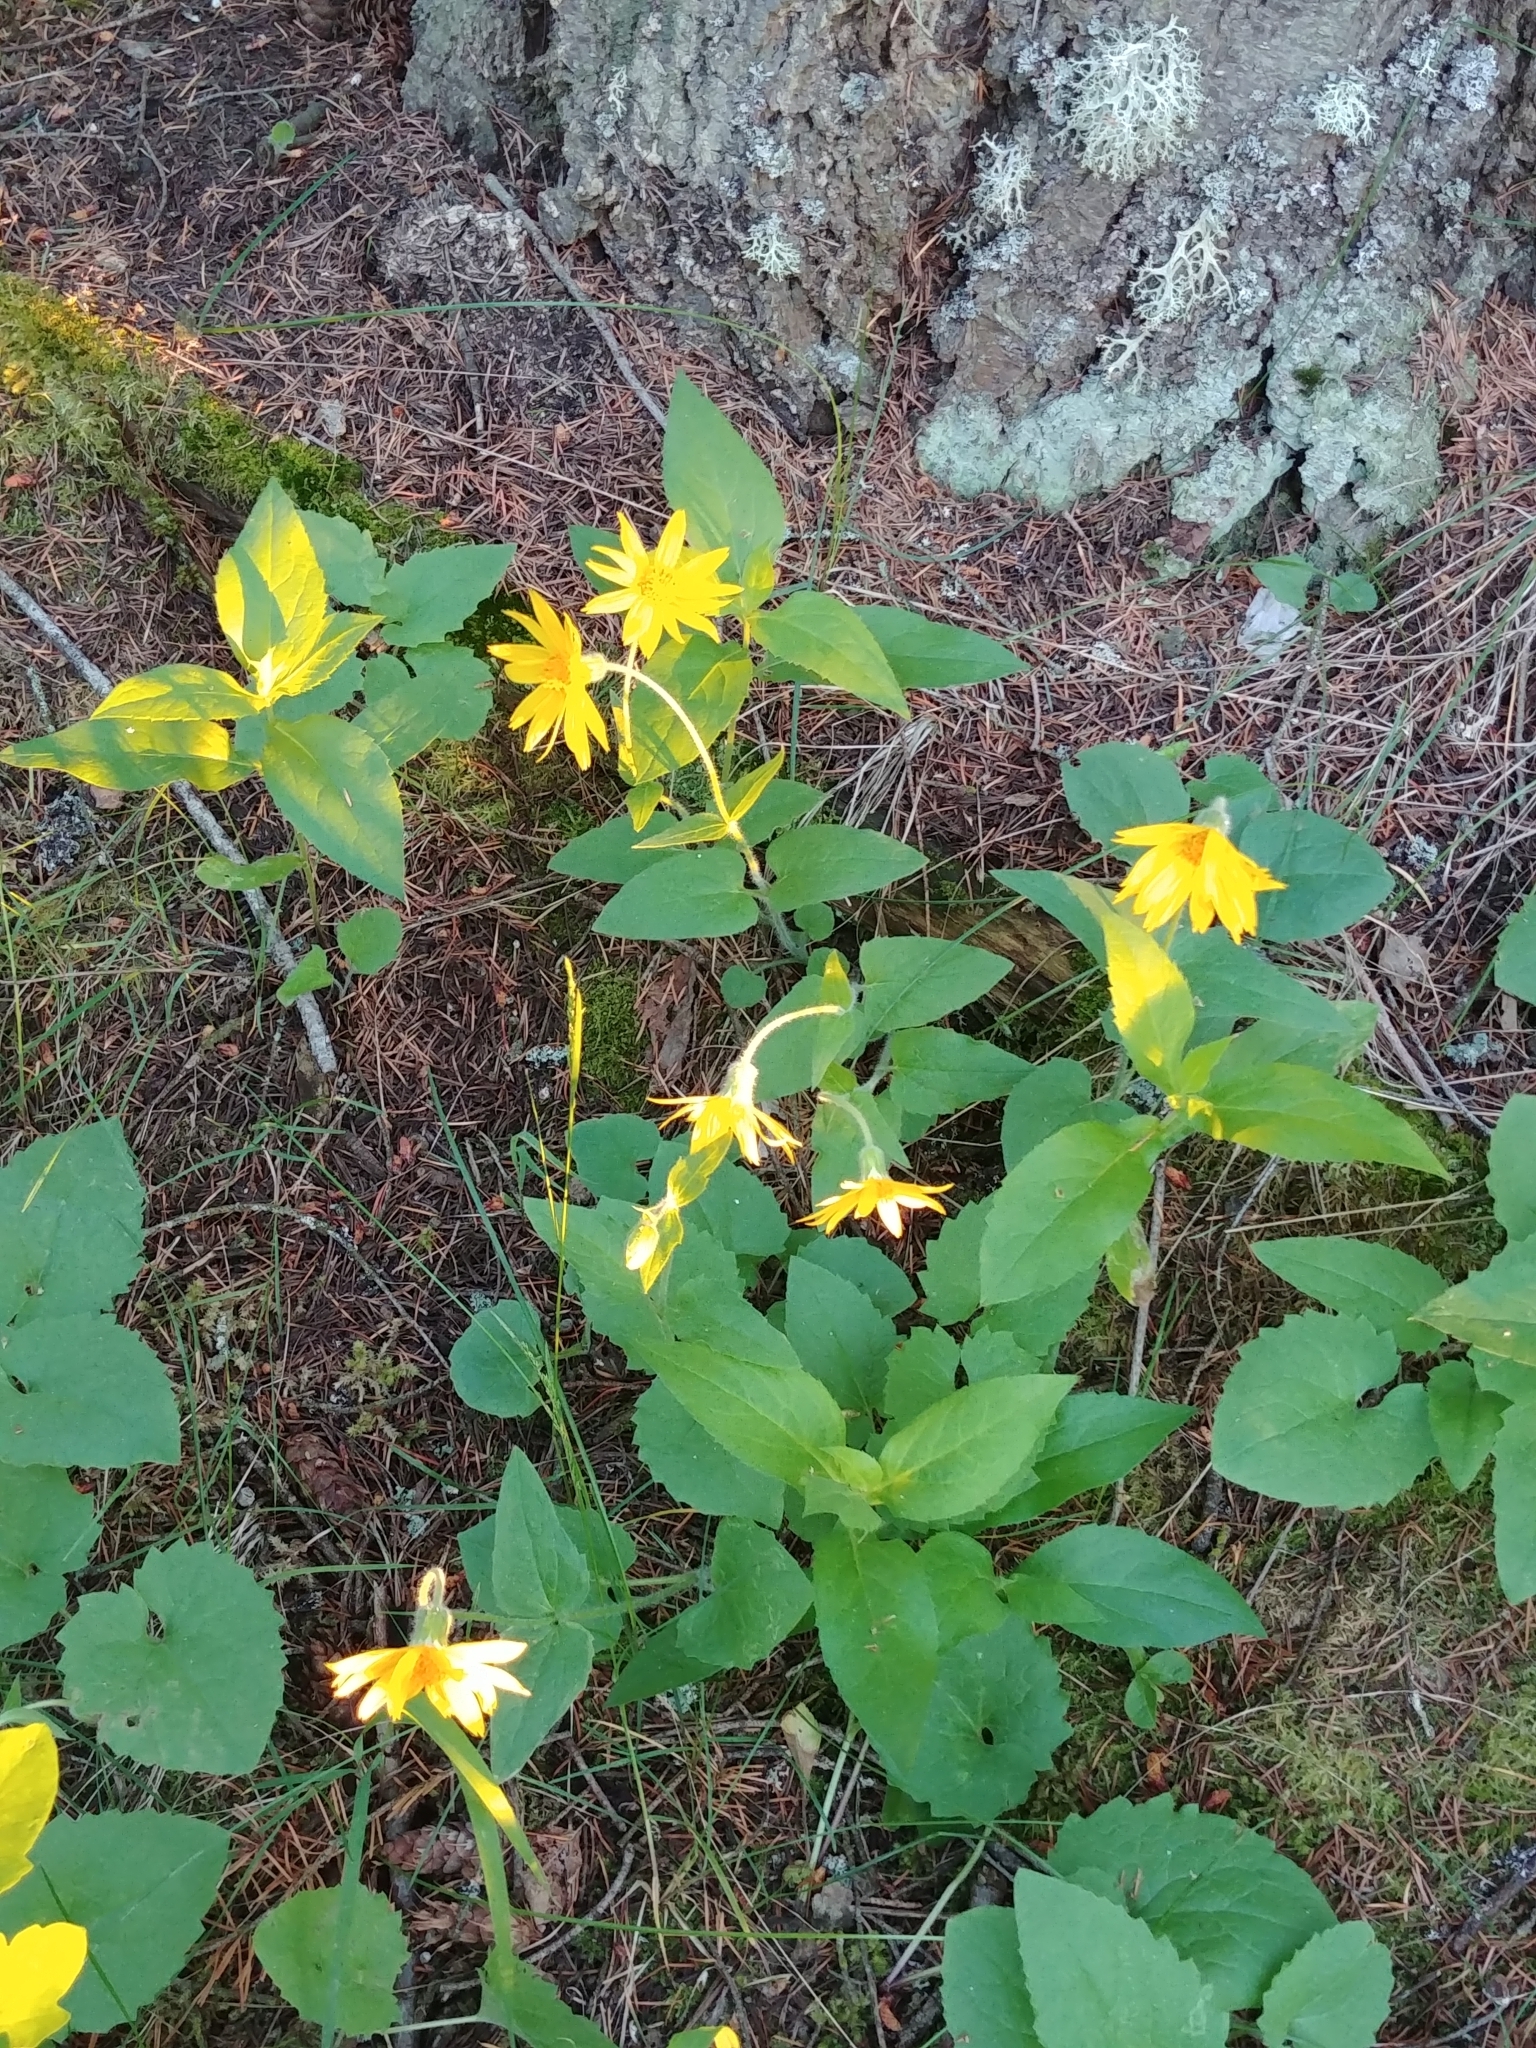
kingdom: Plantae
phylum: Tracheophyta
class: Magnoliopsida
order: Asterales
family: Asteraceae
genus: Arnica
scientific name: Arnica cordifolia
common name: Heart-leaf arnica
